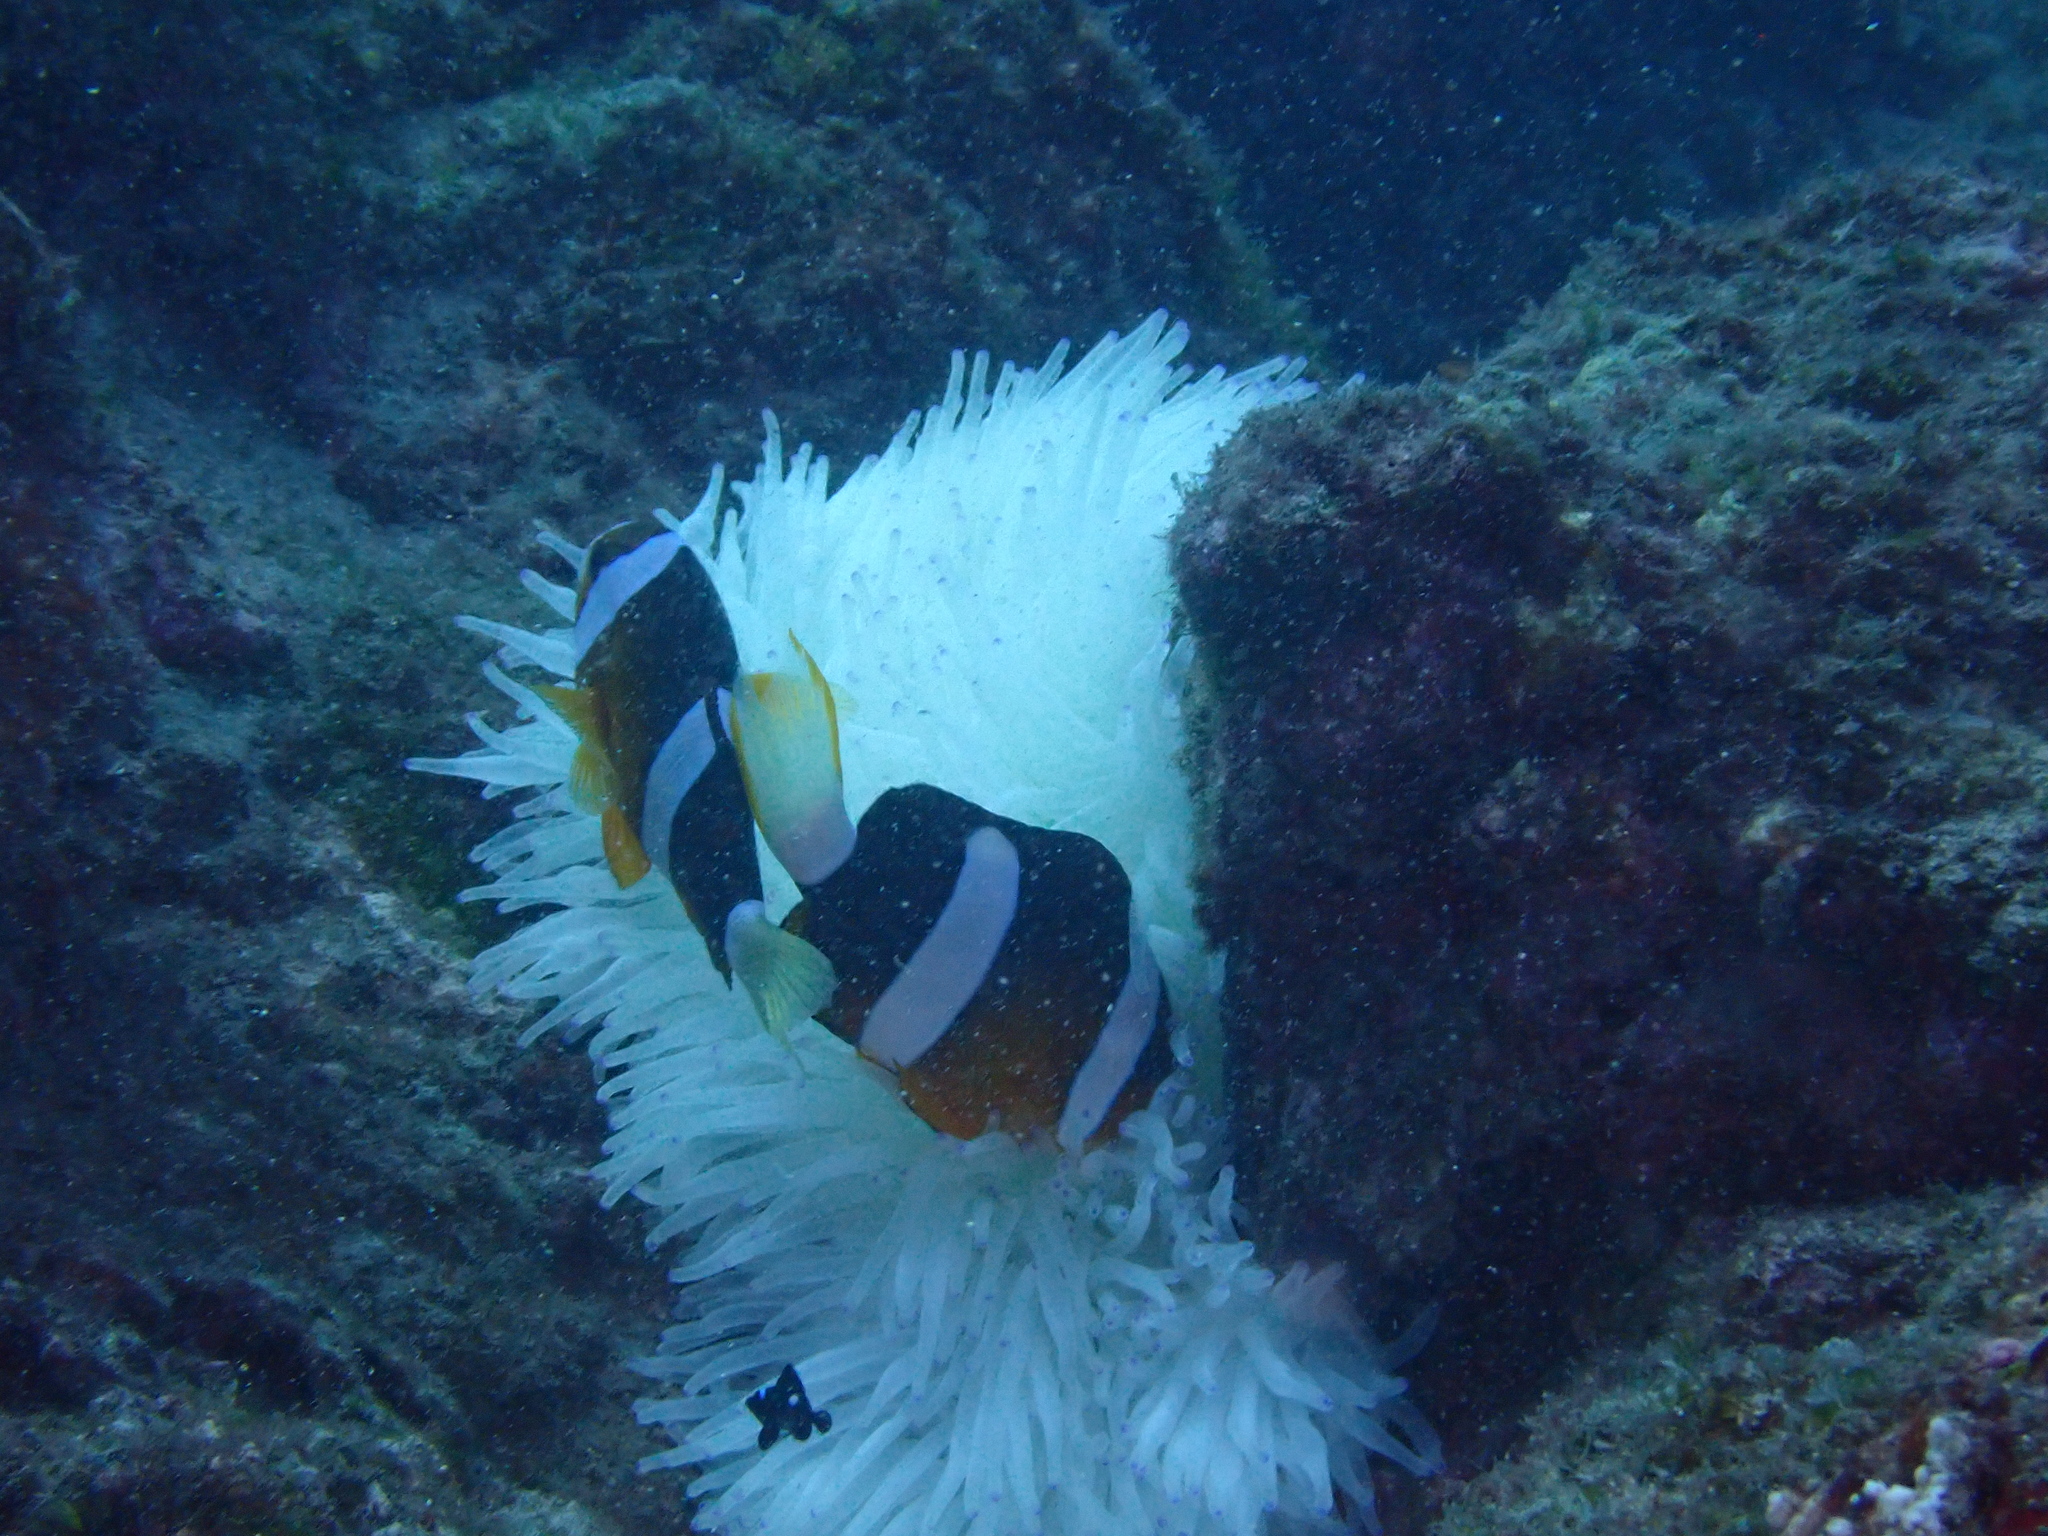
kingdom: Animalia
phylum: Chordata
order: Perciformes
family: Pomacentridae
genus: Amphiprion
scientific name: Amphiprion clarkii
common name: Clark's anemonefish
